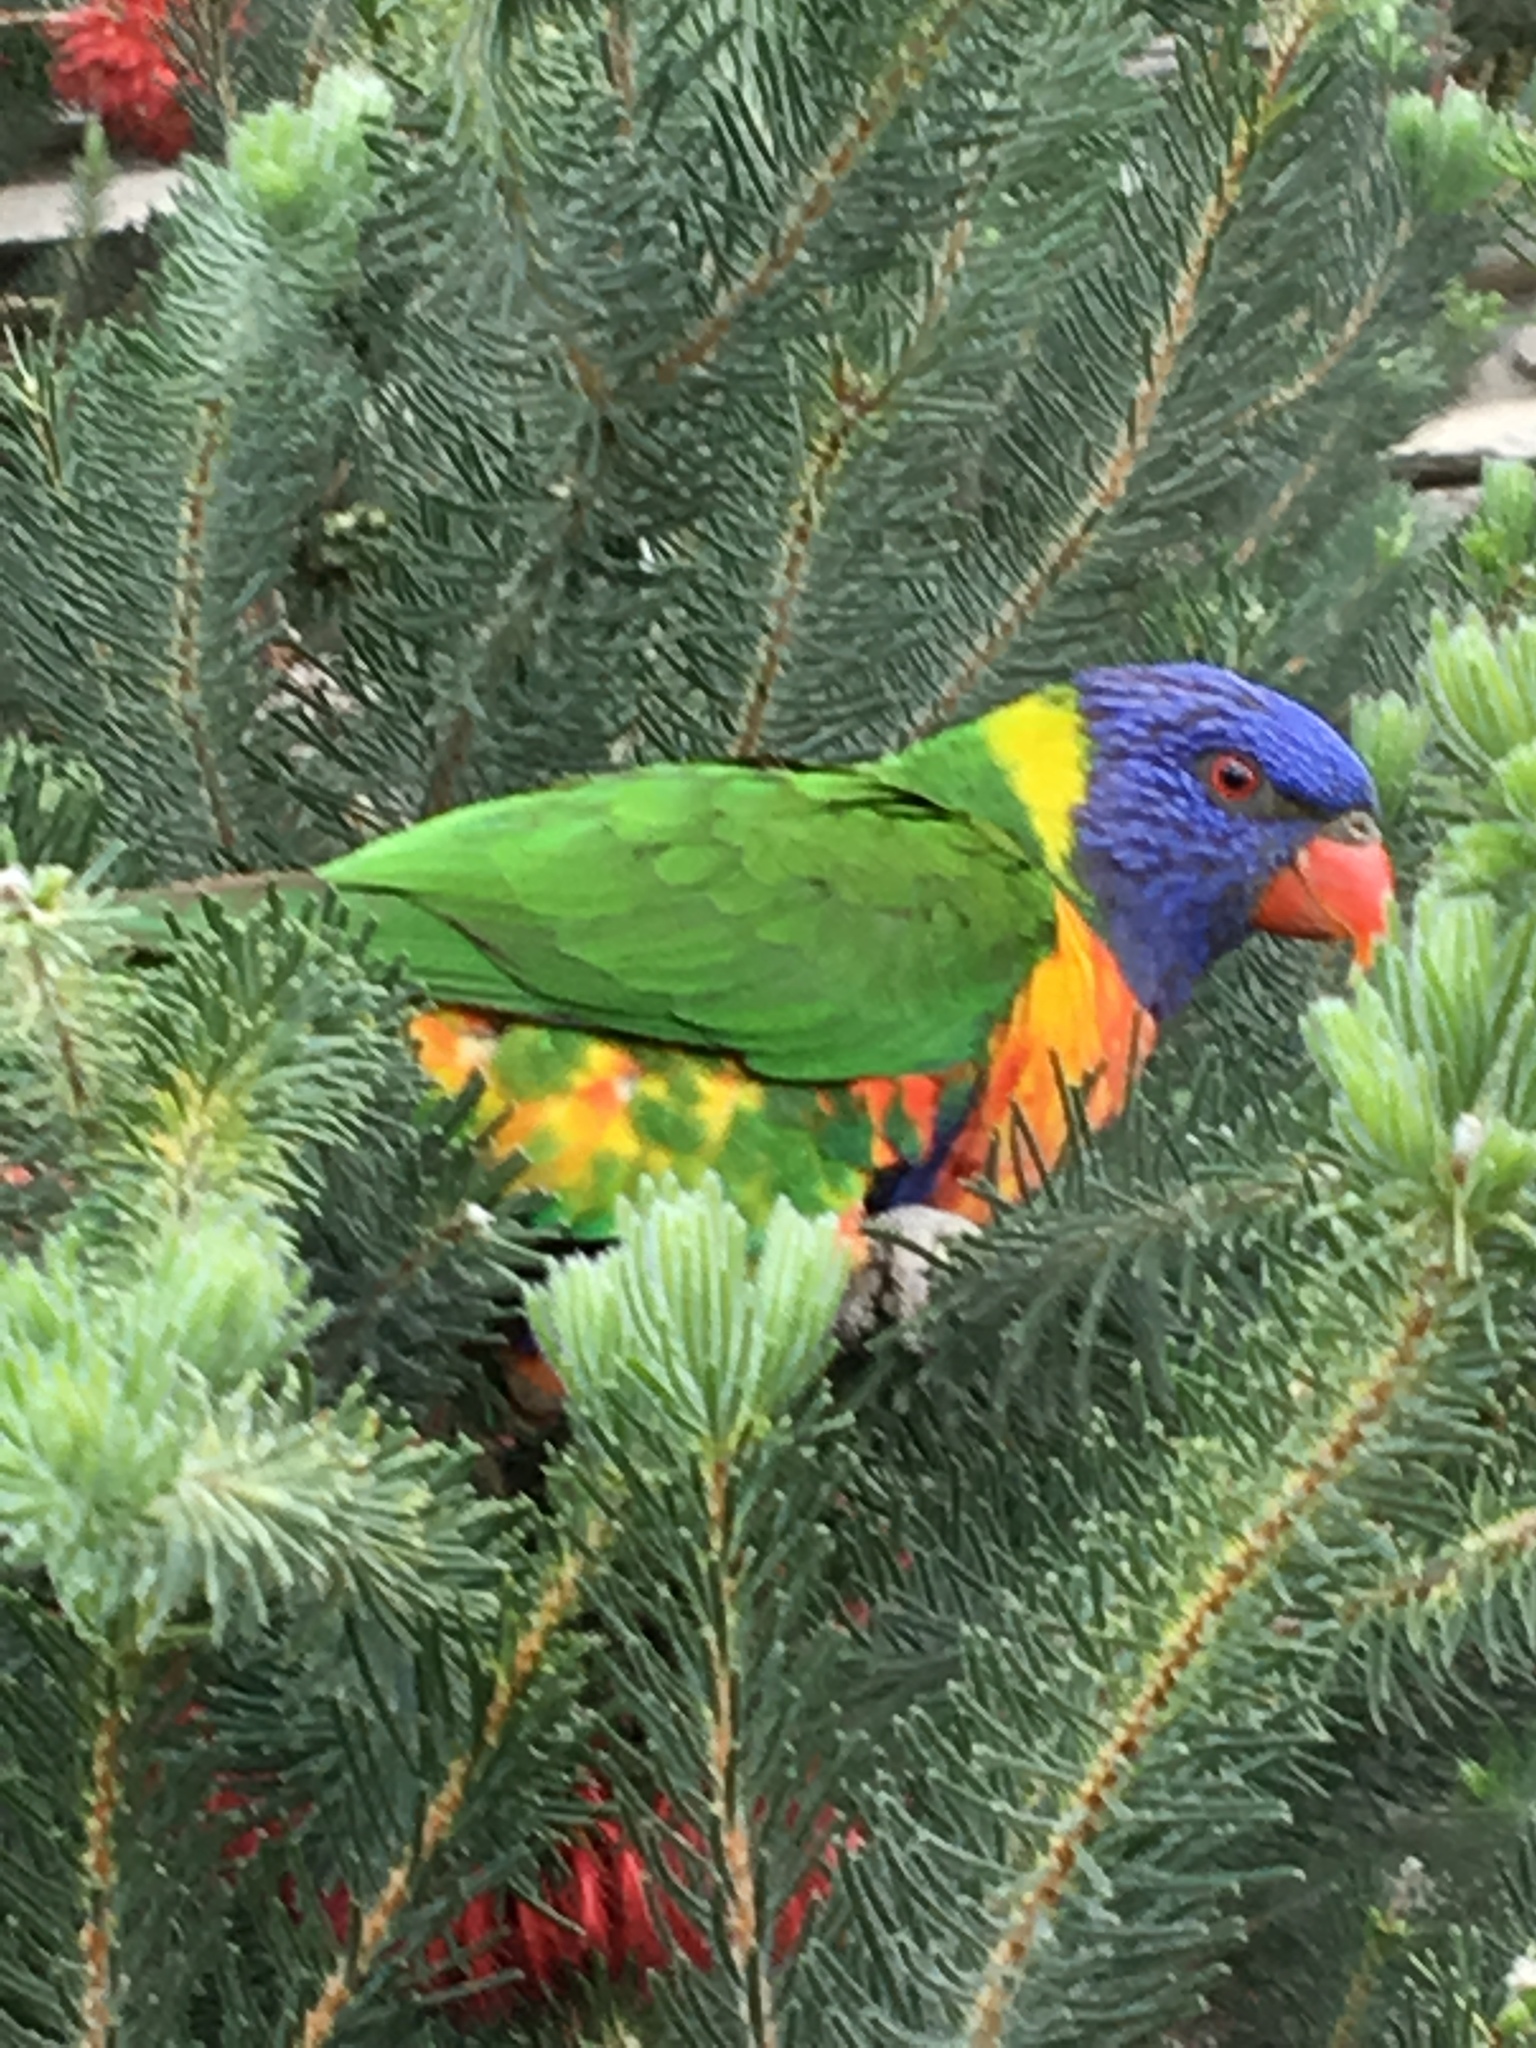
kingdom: Animalia
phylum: Chordata
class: Aves
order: Psittaciformes
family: Psittacidae
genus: Trichoglossus
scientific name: Trichoglossus haematodus
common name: Coconut lorikeet
